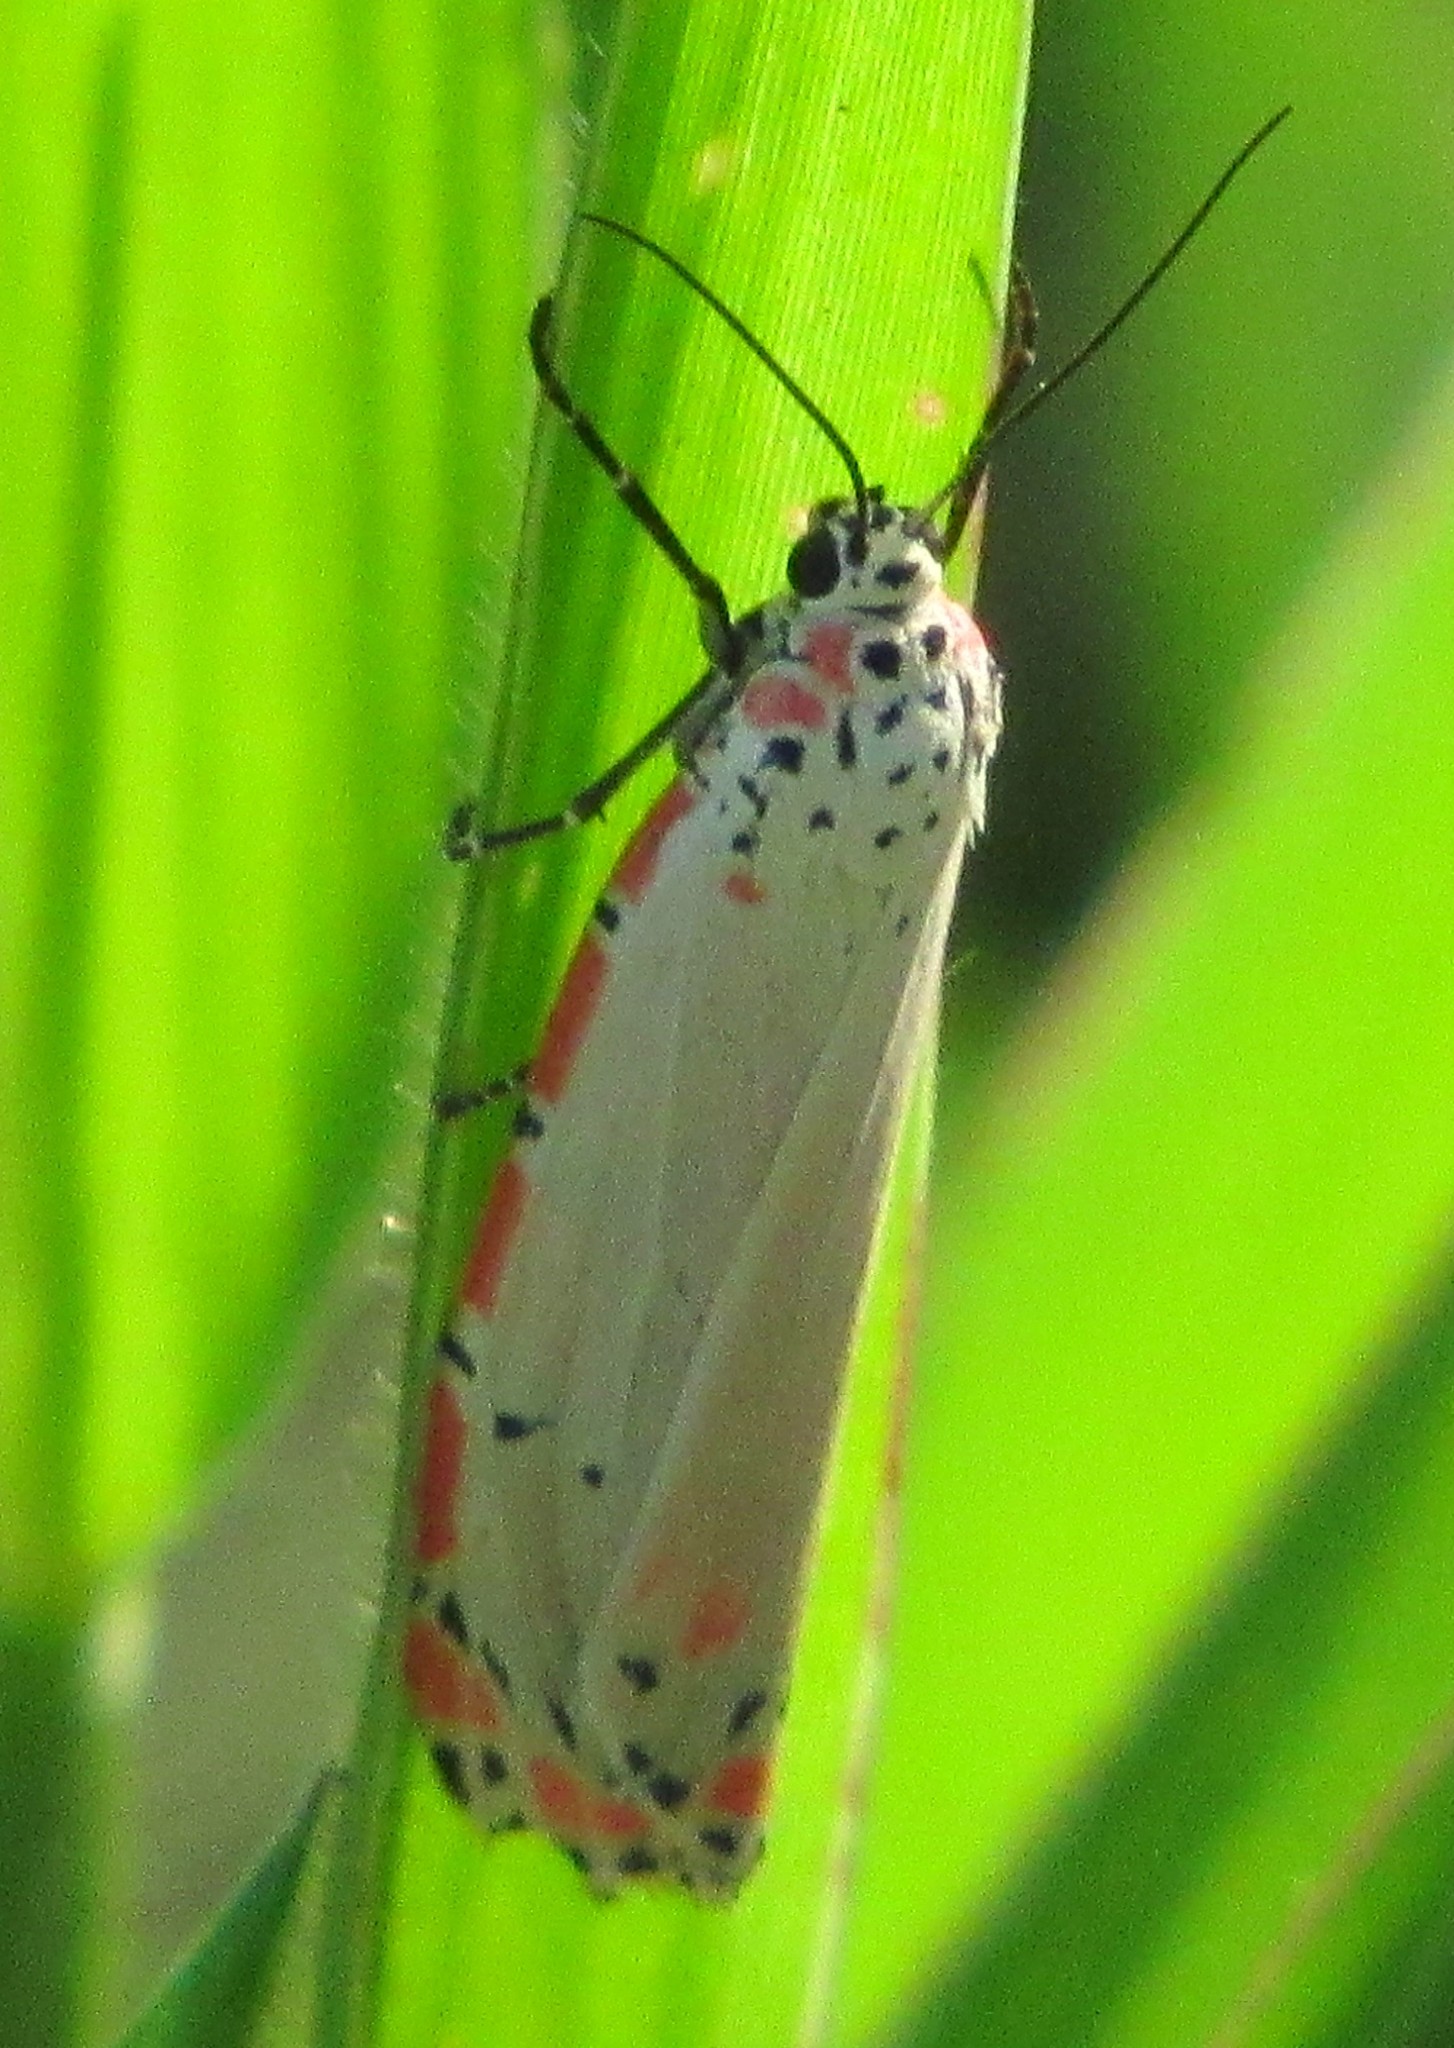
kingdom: Animalia
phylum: Arthropoda
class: Insecta
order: Lepidoptera
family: Erebidae
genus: Utetheisa
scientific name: Utetheisa ornatrix
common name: Beautiful utetheisa
